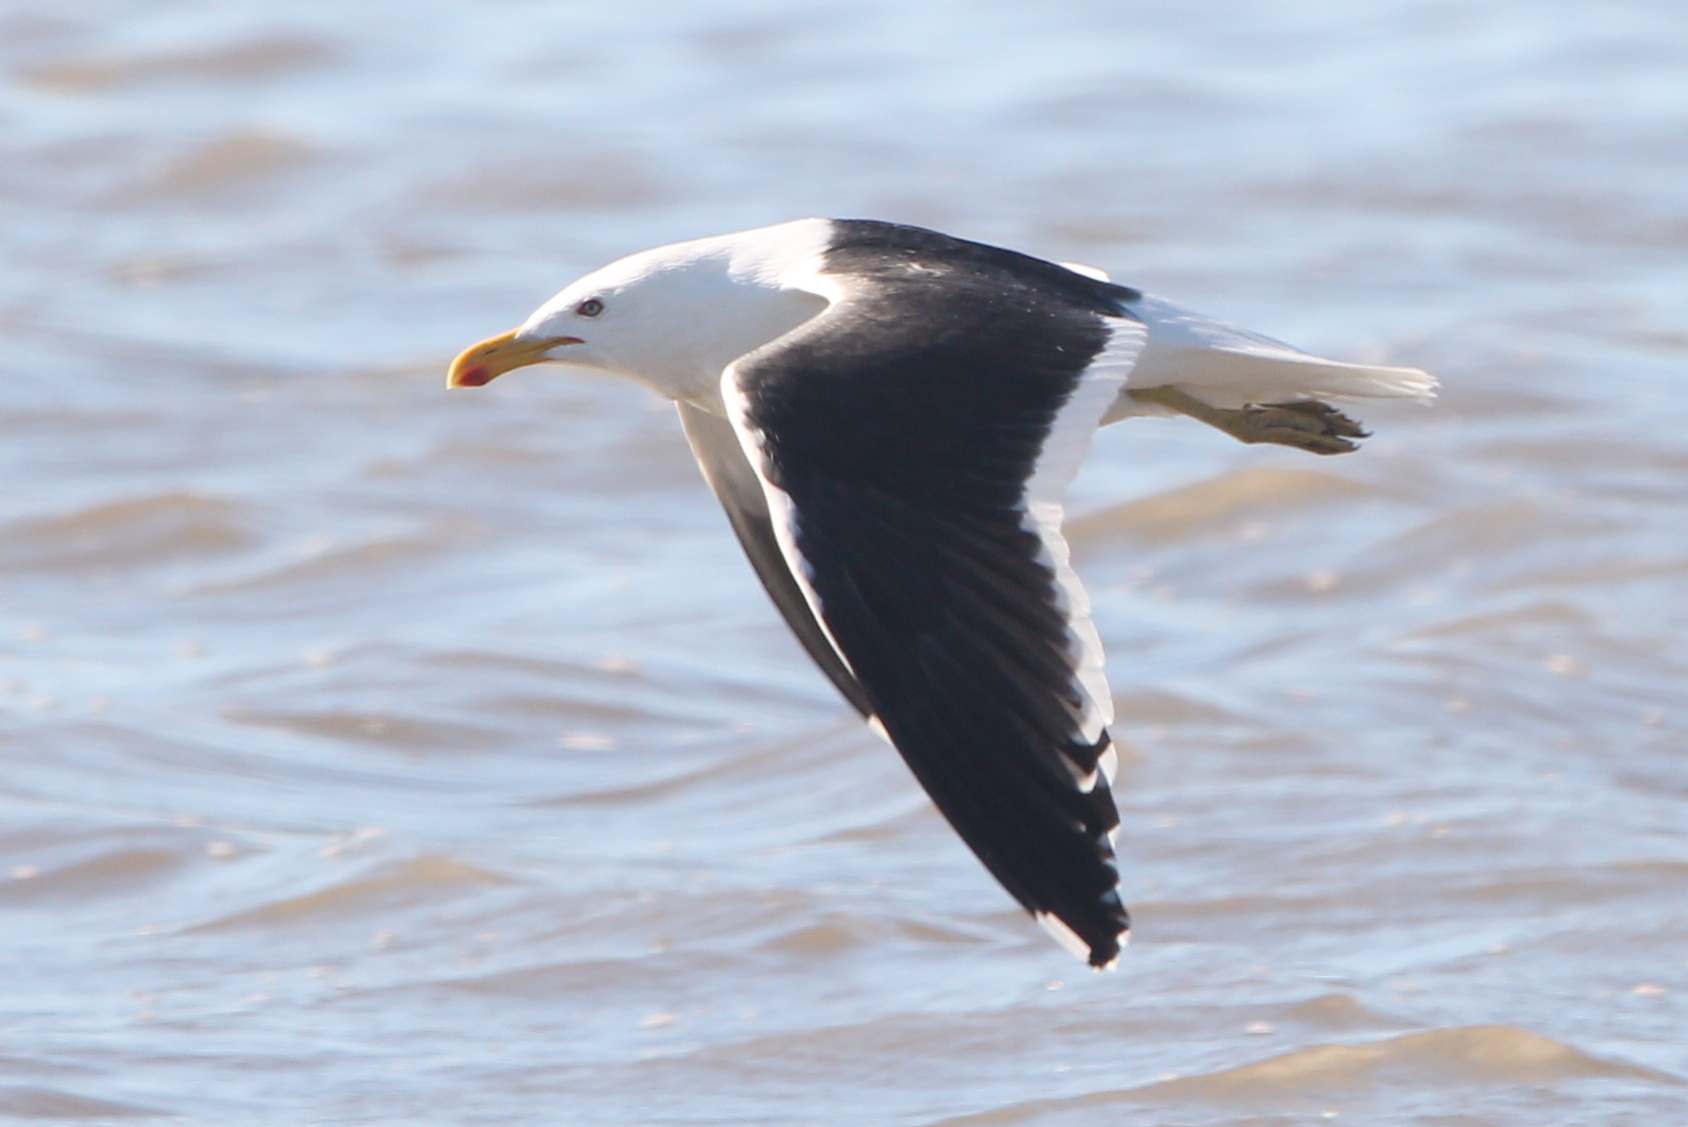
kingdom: Animalia
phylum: Chordata
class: Aves
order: Charadriiformes
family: Laridae
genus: Larus
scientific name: Larus dominicanus
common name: Kelp gull
